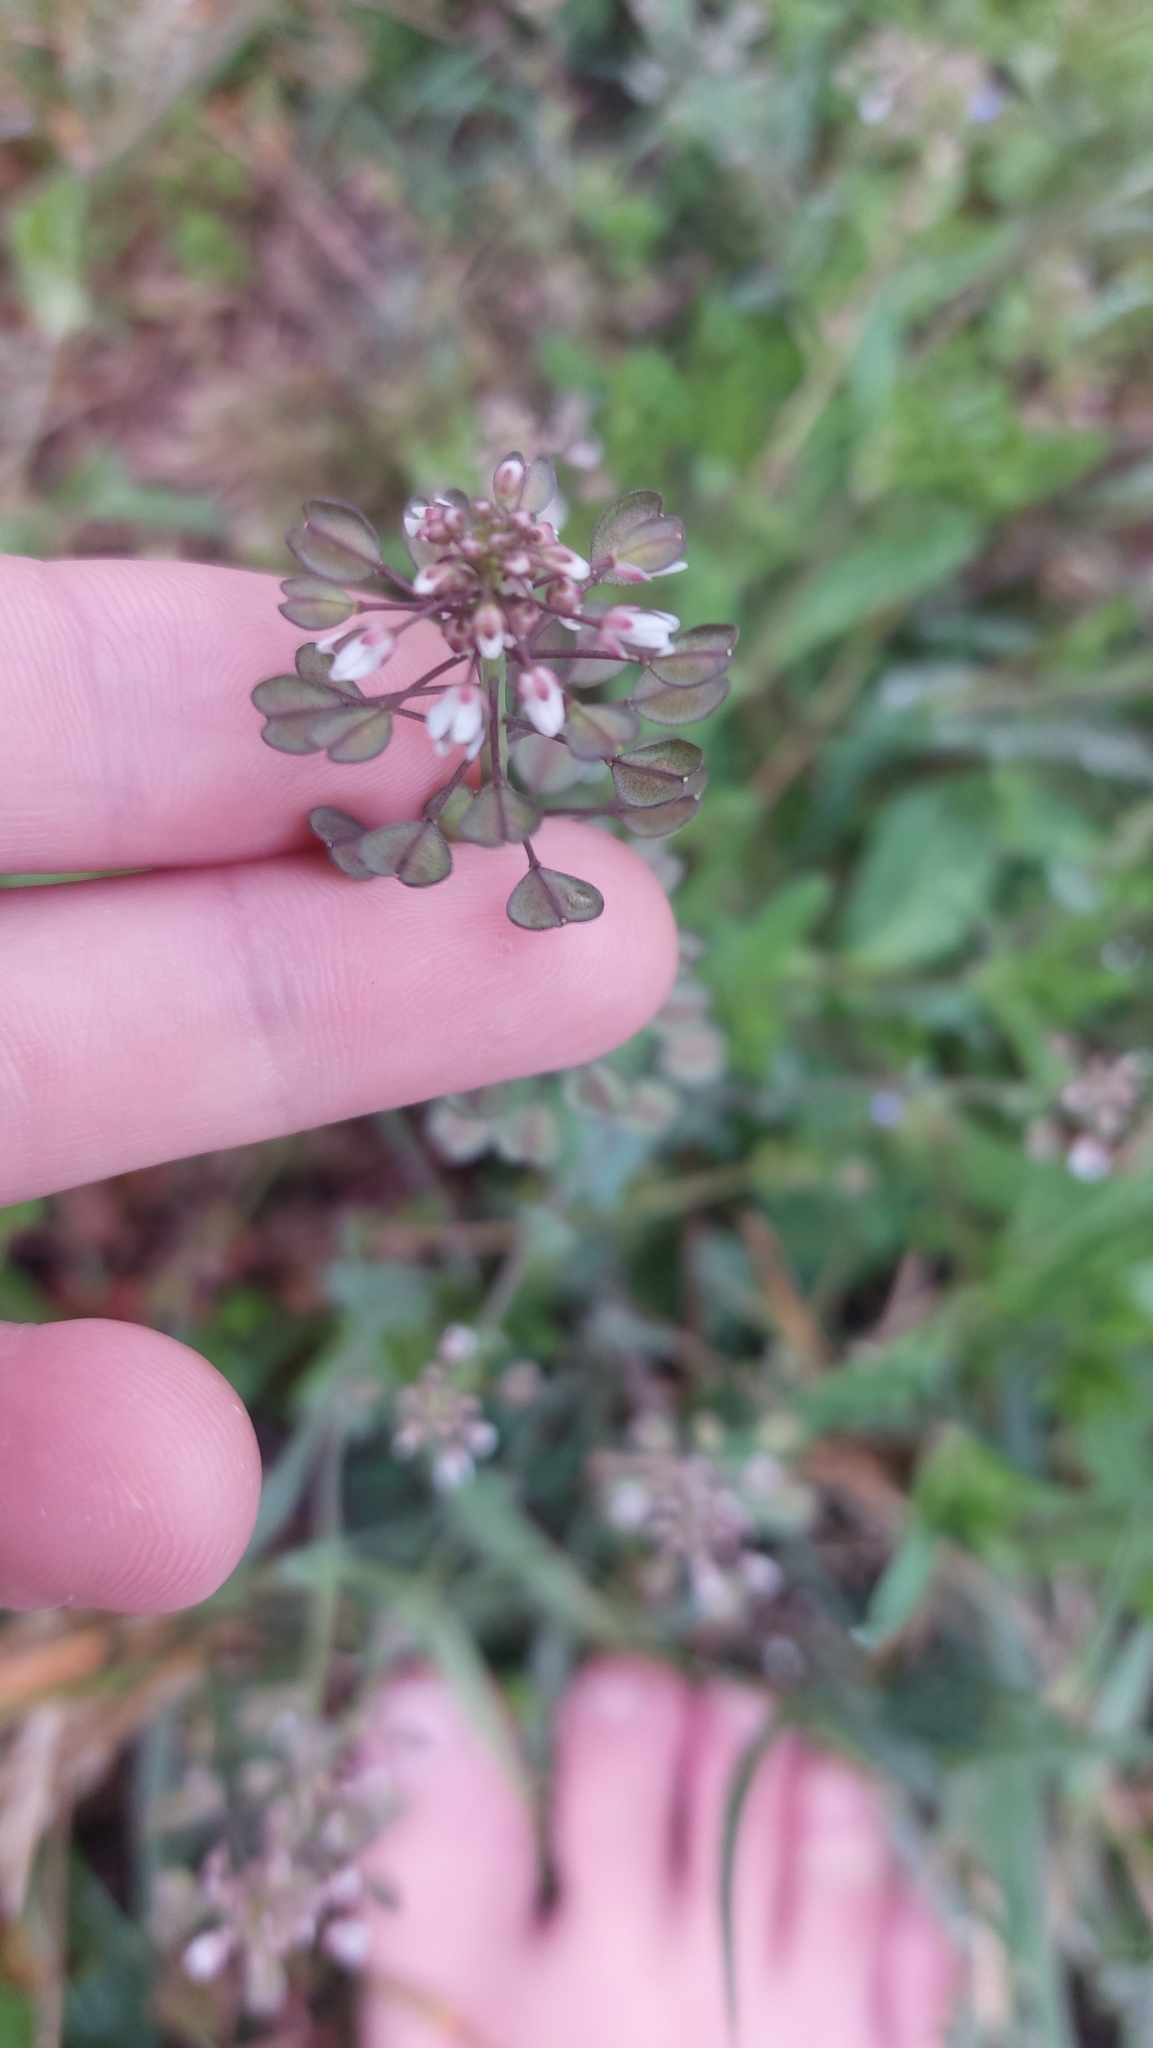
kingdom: Plantae
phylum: Tracheophyta
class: Magnoliopsida
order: Brassicales
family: Brassicaceae
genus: Noccaea
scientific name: Noccaea perfoliata
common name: Perfoliate pennycress
